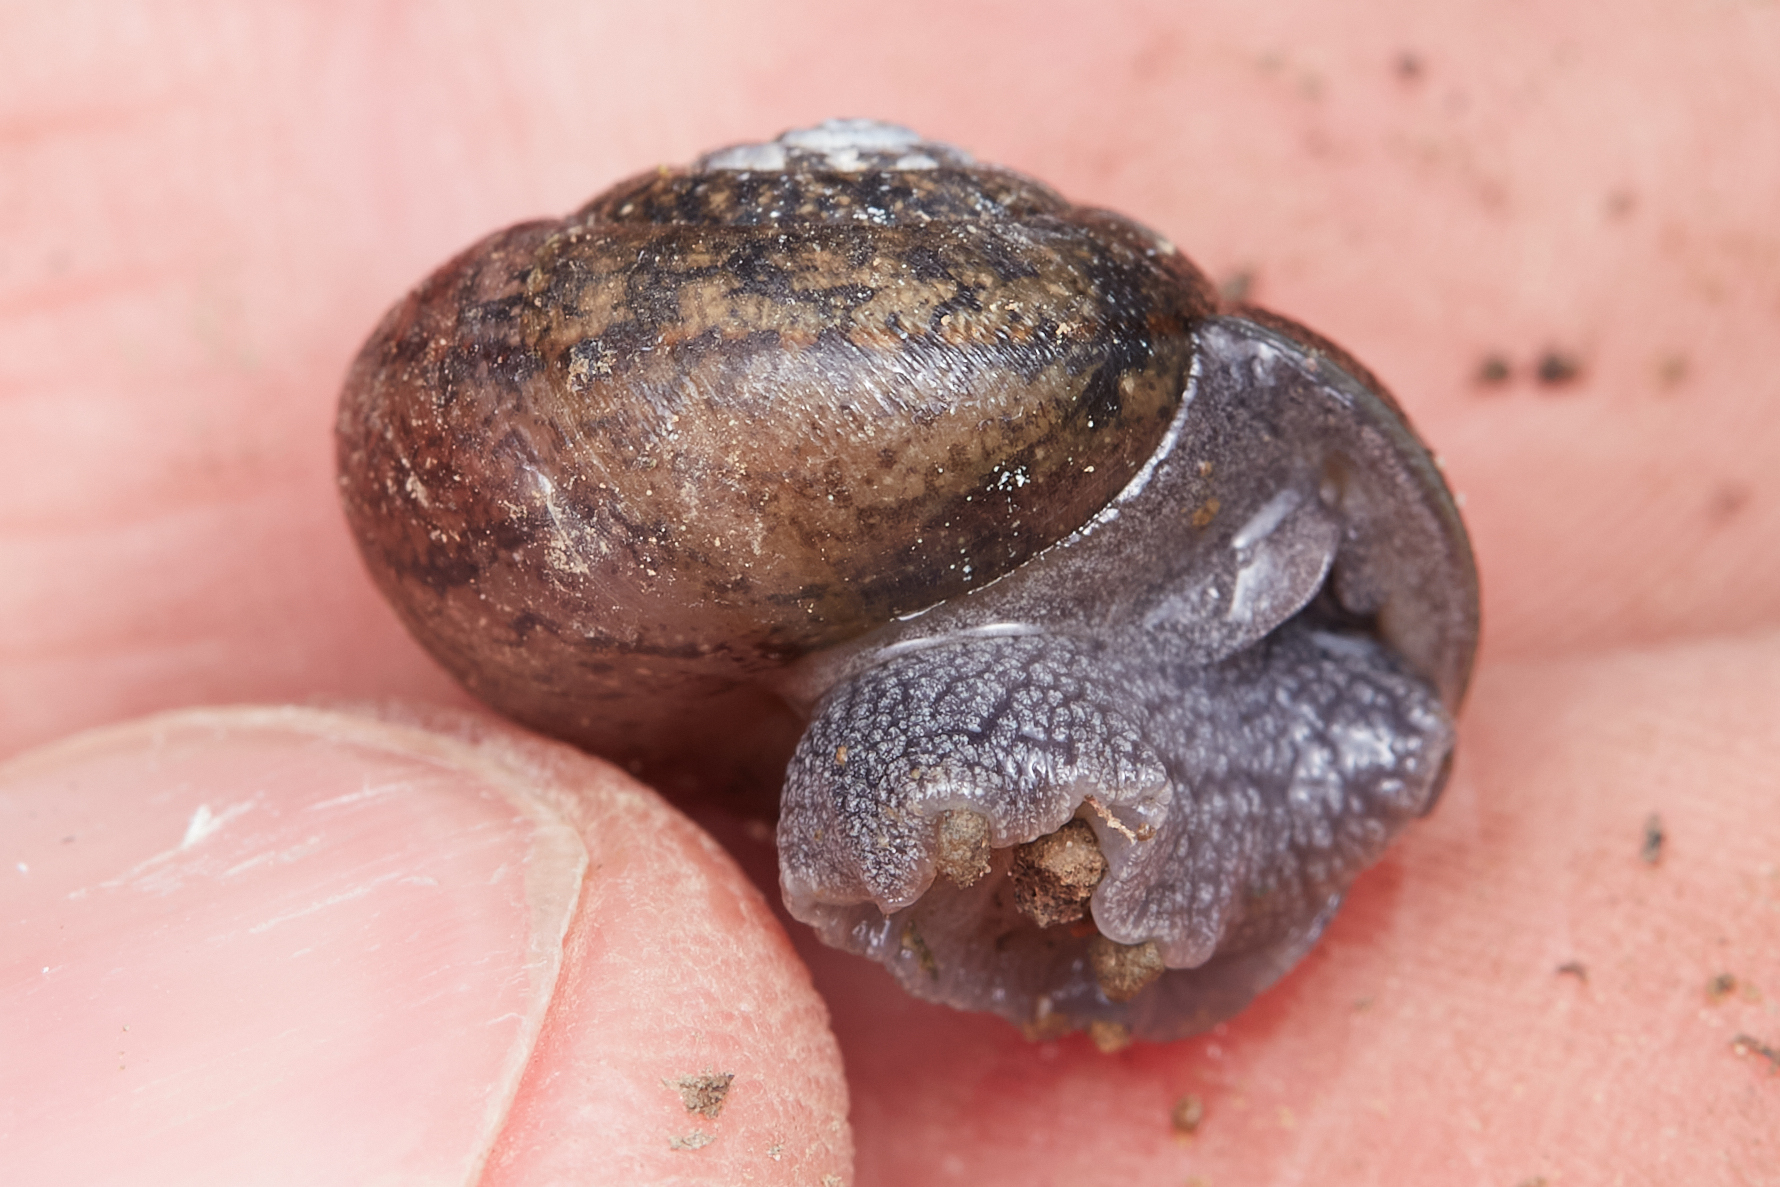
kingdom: Animalia
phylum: Mollusca
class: Gastropoda
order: Stylommatophora
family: Xanthonychidae
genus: Helminthoglypta
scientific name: Helminthoglypta nickliniana
